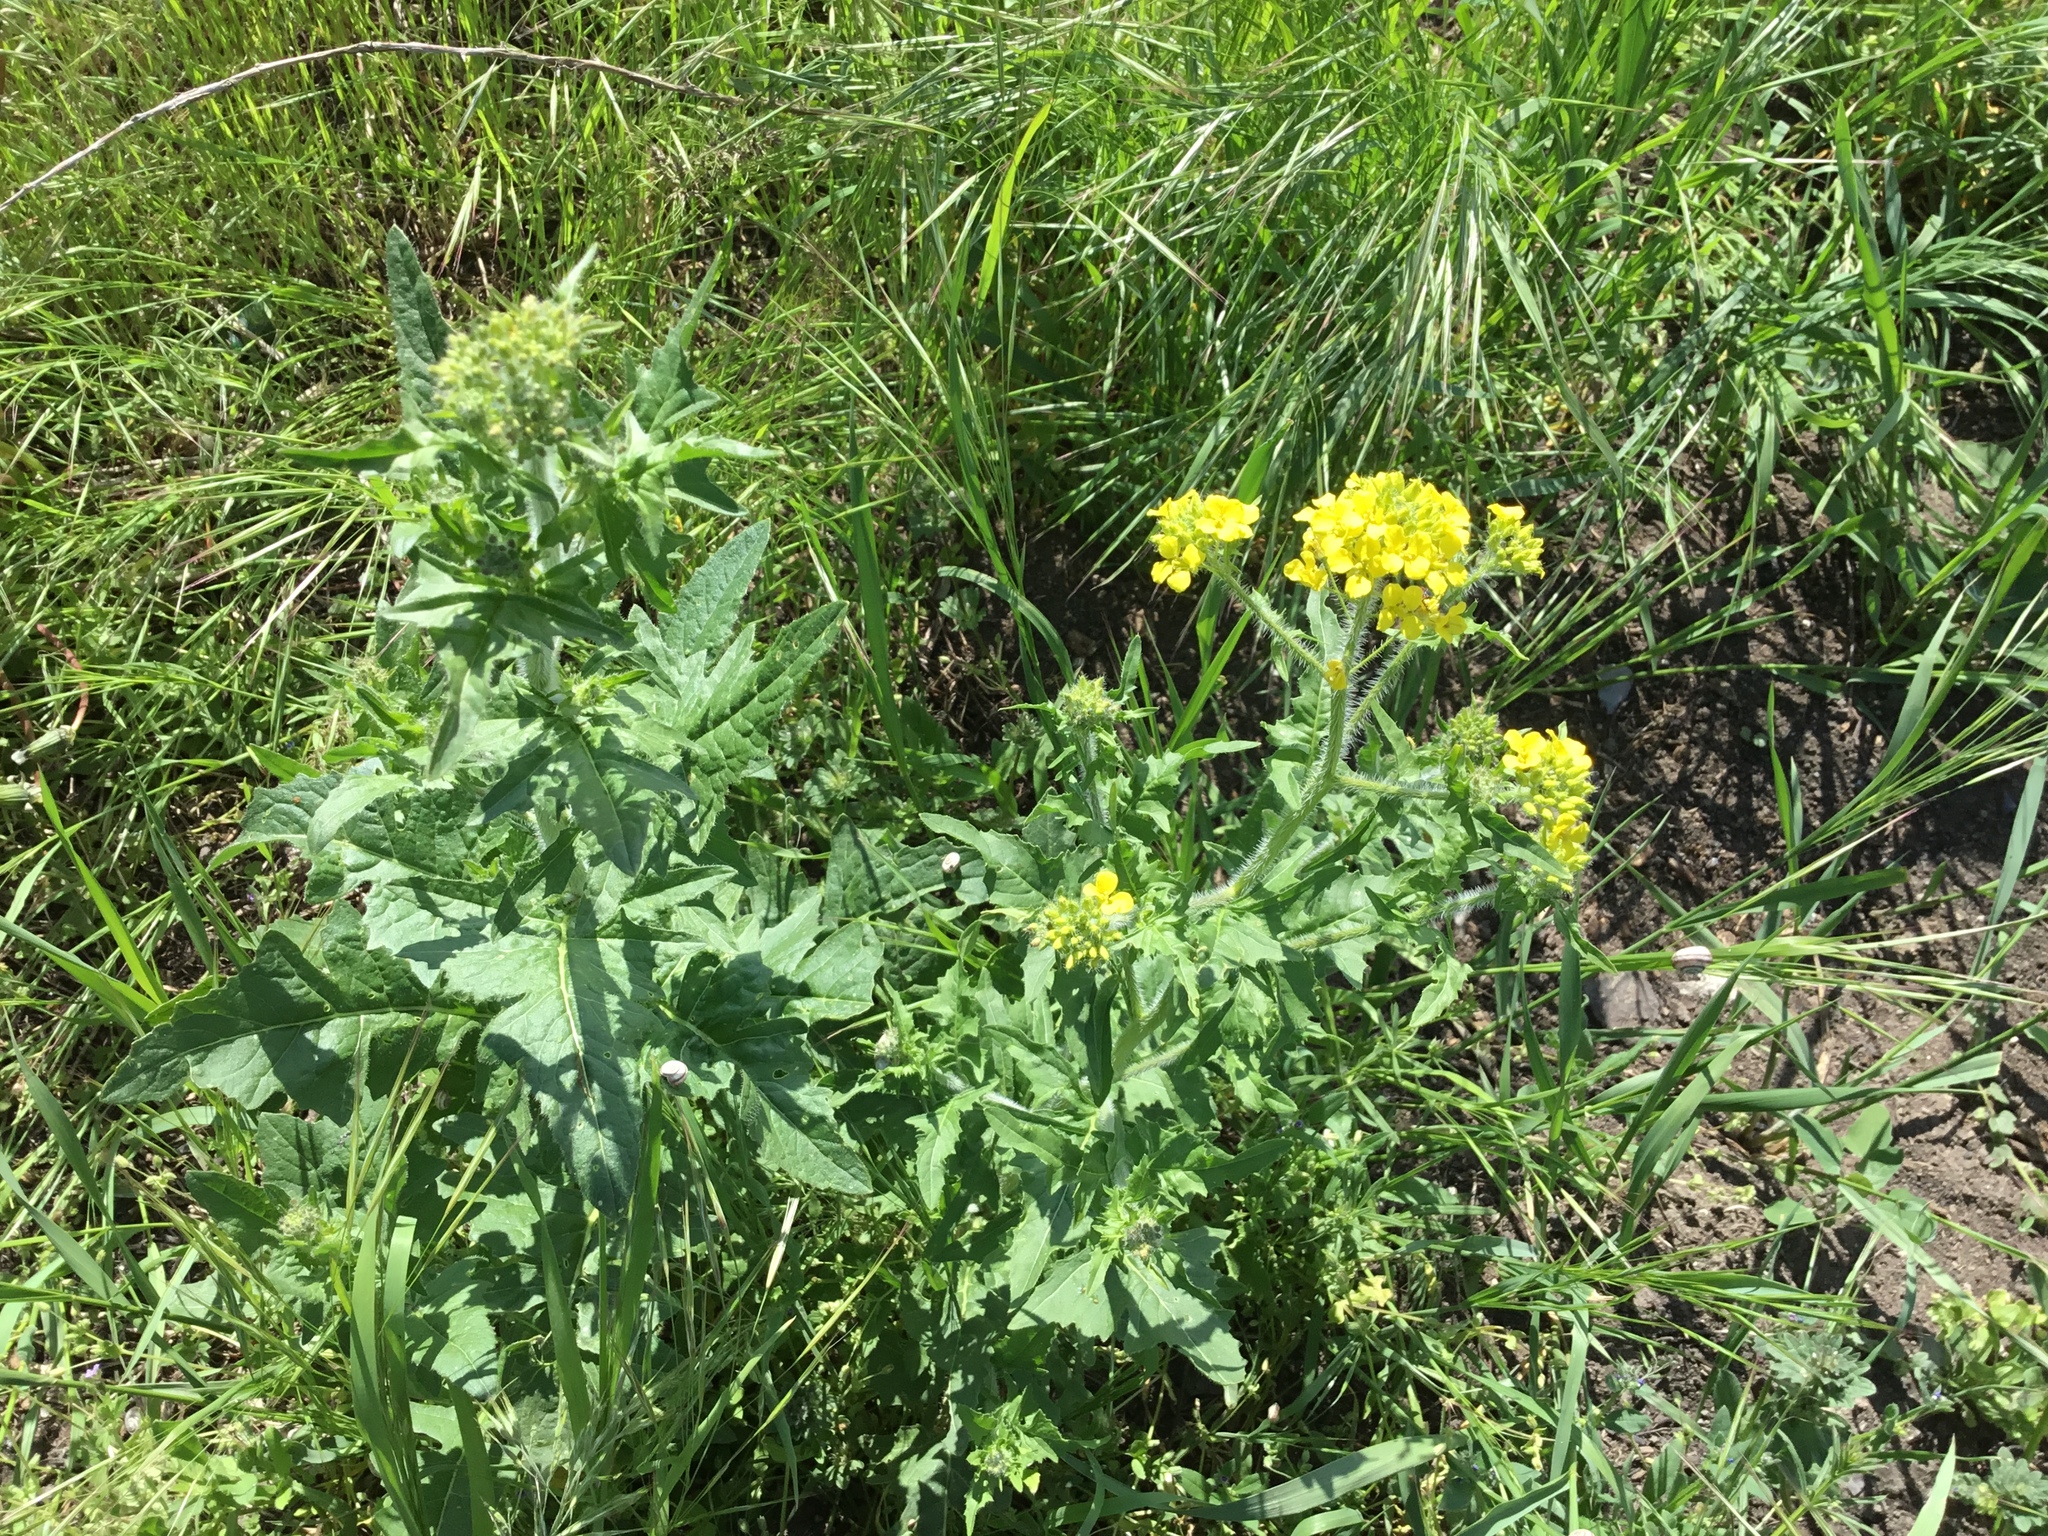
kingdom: Plantae
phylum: Tracheophyta
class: Magnoliopsida
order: Brassicales
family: Brassicaceae
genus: Sisymbrium
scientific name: Sisymbrium loeselii
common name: False london-rocket
